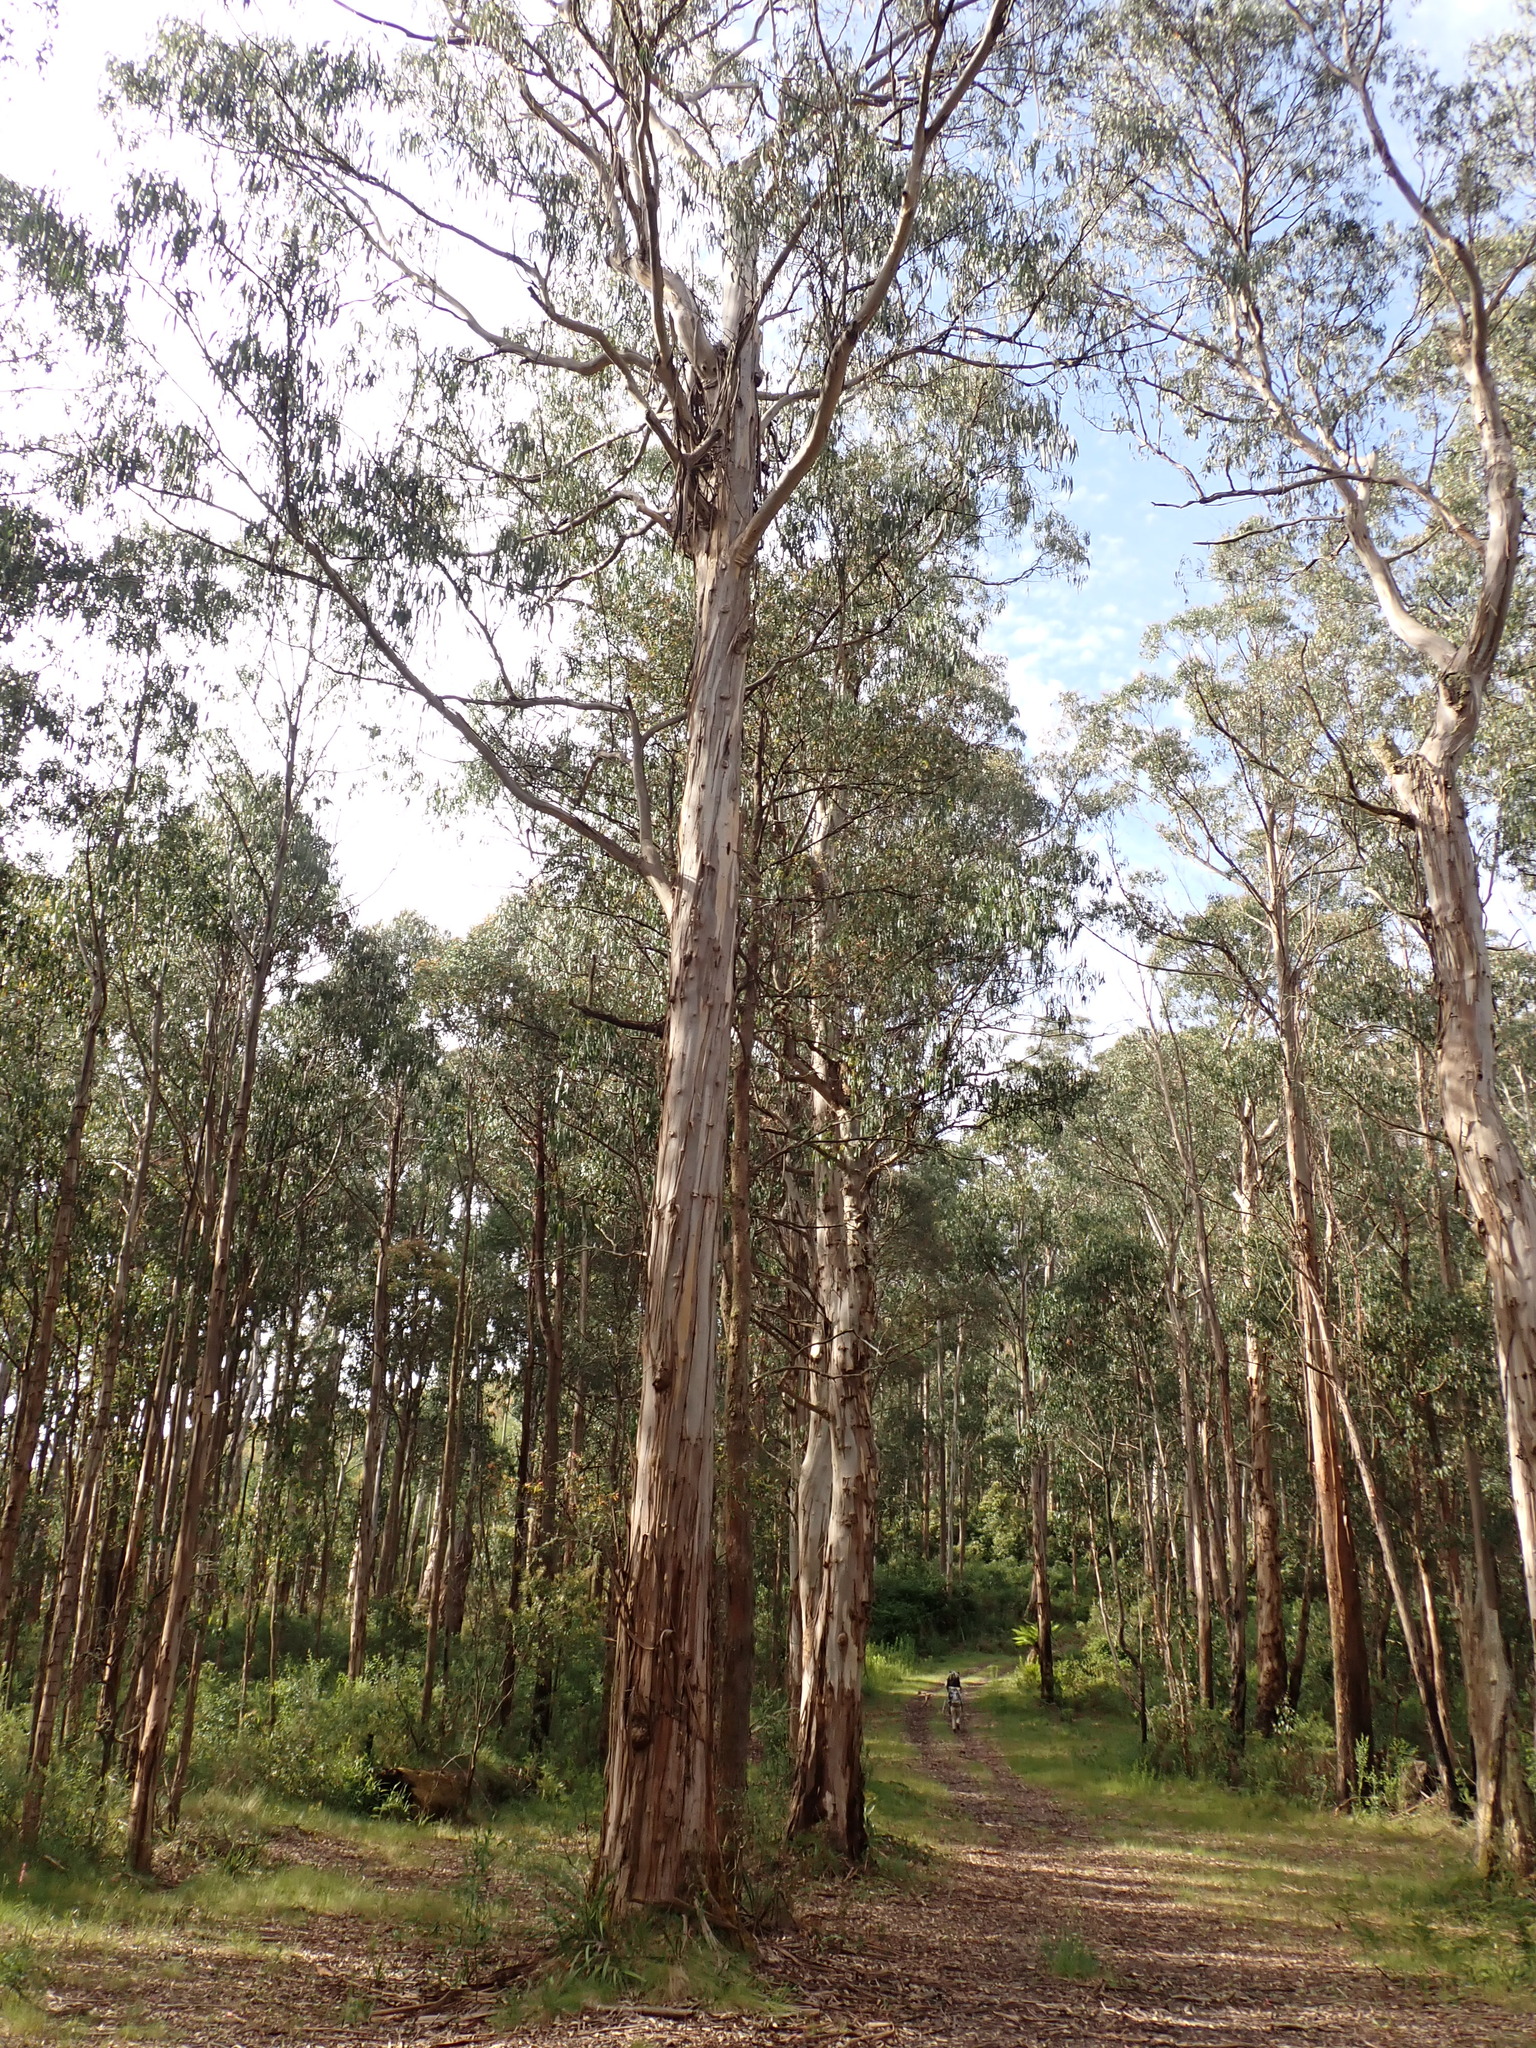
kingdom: Plantae
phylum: Tracheophyta
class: Magnoliopsida
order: Myrtales
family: Myrtaceae
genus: Eucalyptus
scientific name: Eucalyptus cypellocarpa
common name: Mountain grey gum
